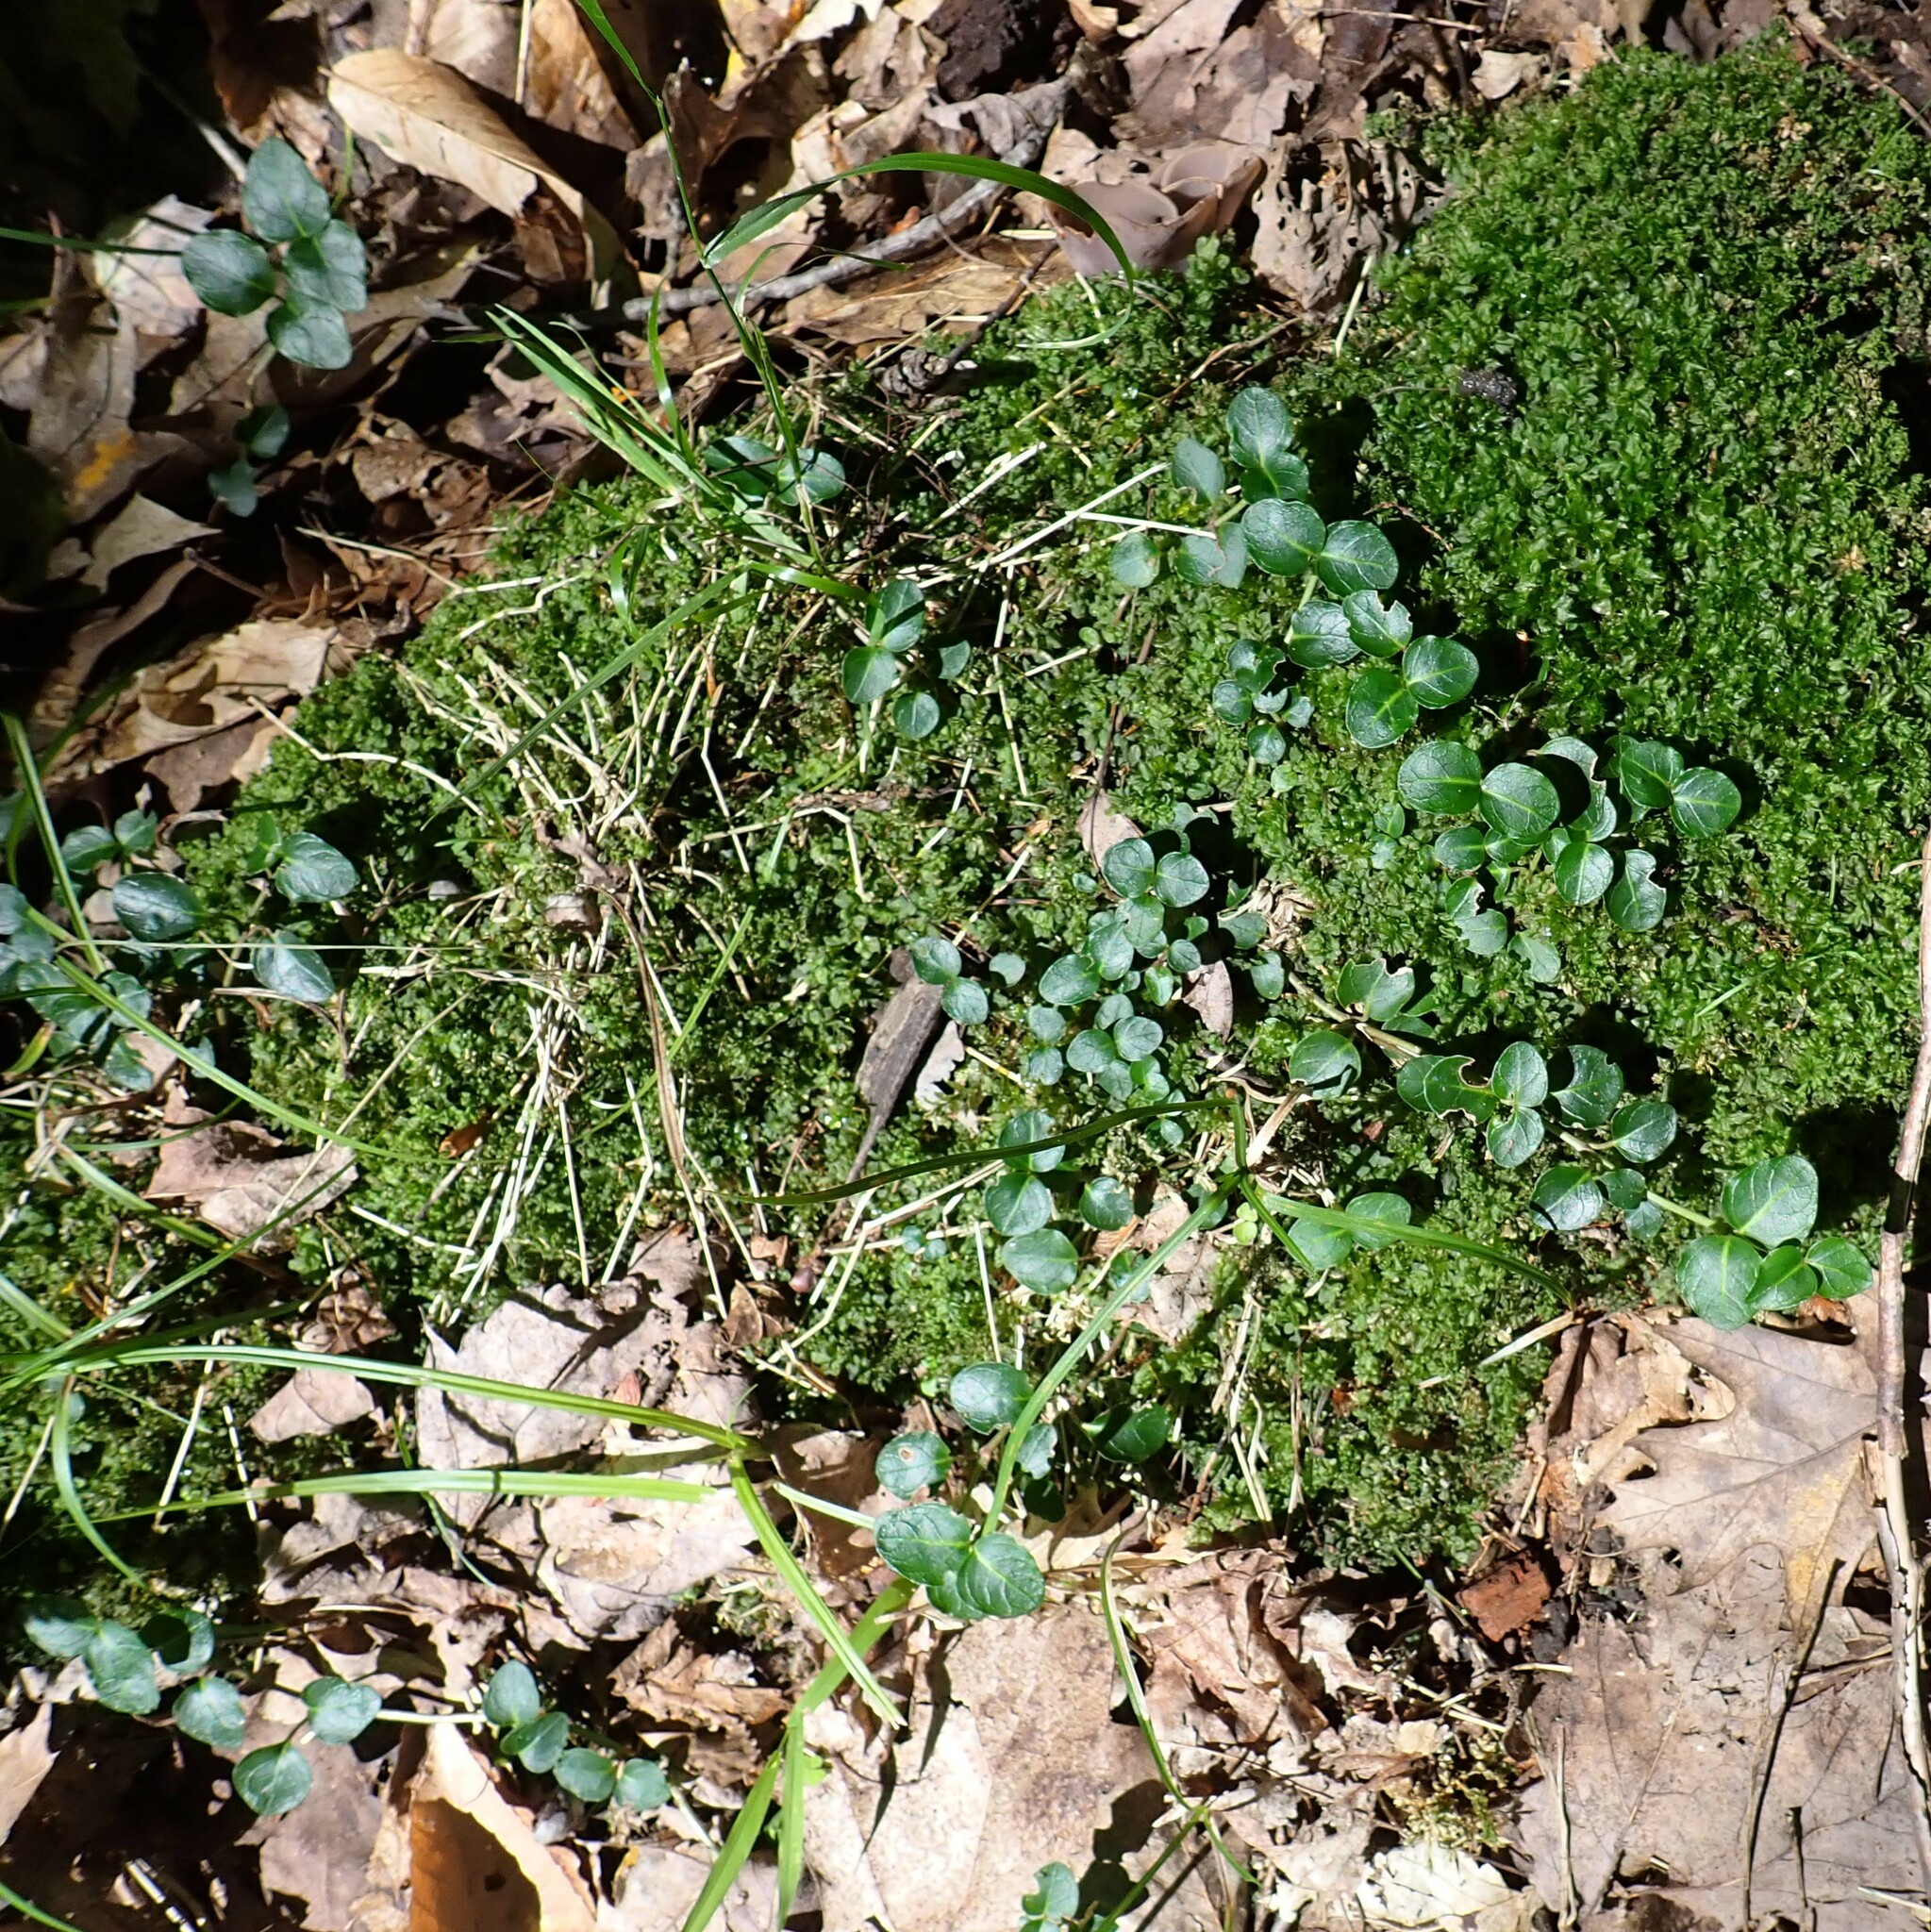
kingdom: Plantae
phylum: Tracheophyta
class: Magnoliopsida
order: Gentianales
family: Rubiaceae
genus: Mitchella
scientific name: Mitchella repens
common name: Partridge-berry
